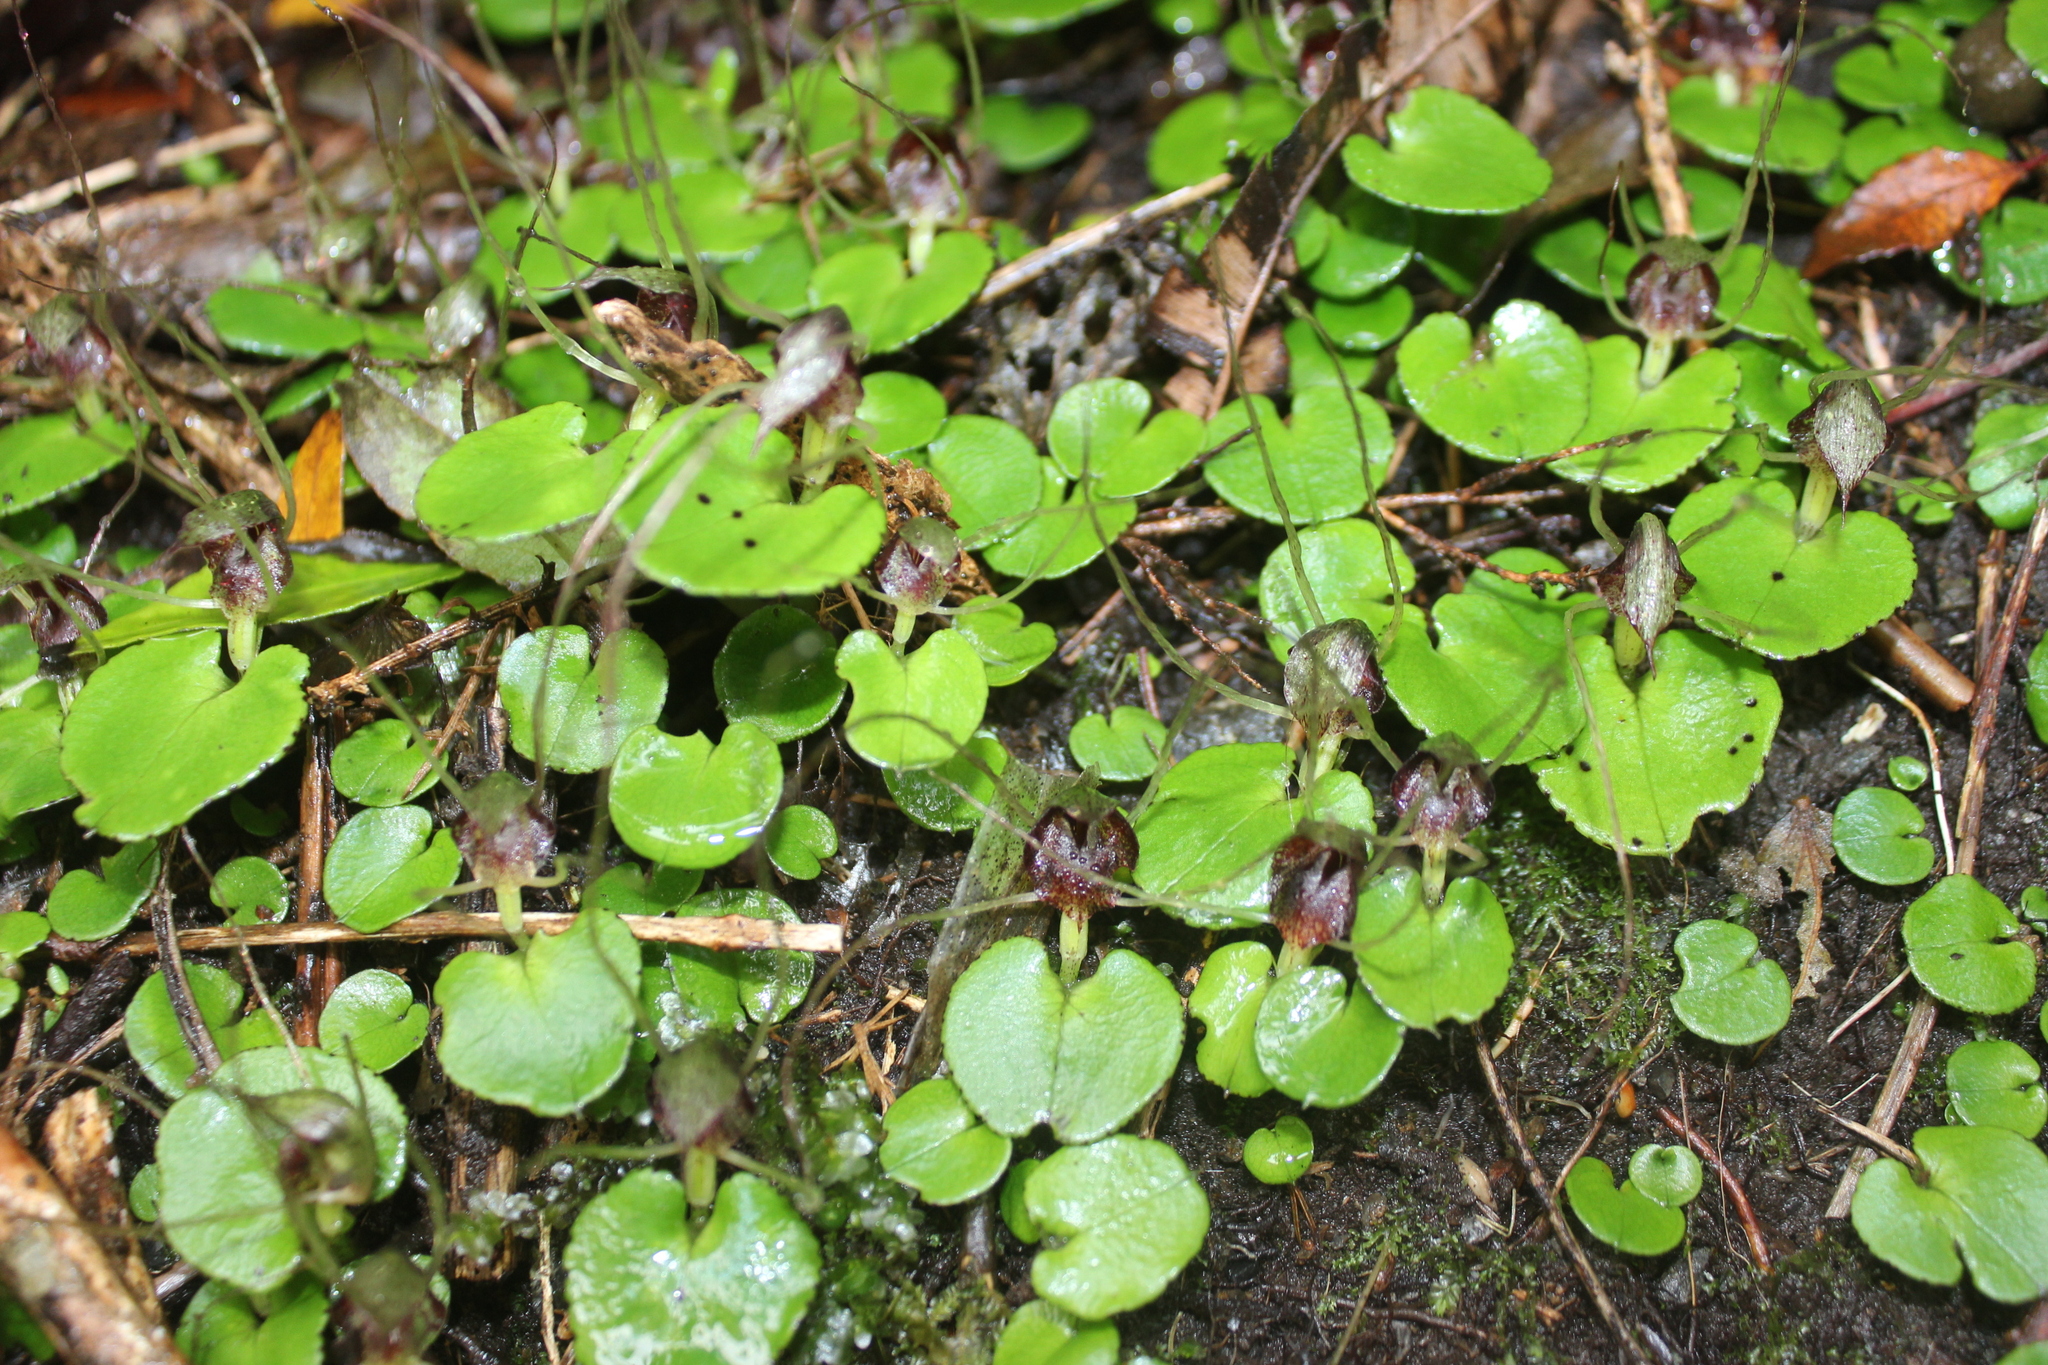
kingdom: Plantae
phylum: Tracheophyta
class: Liliopsida
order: Asparagales
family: Orchidaceae
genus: Corybas
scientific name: Corybas hatchii
